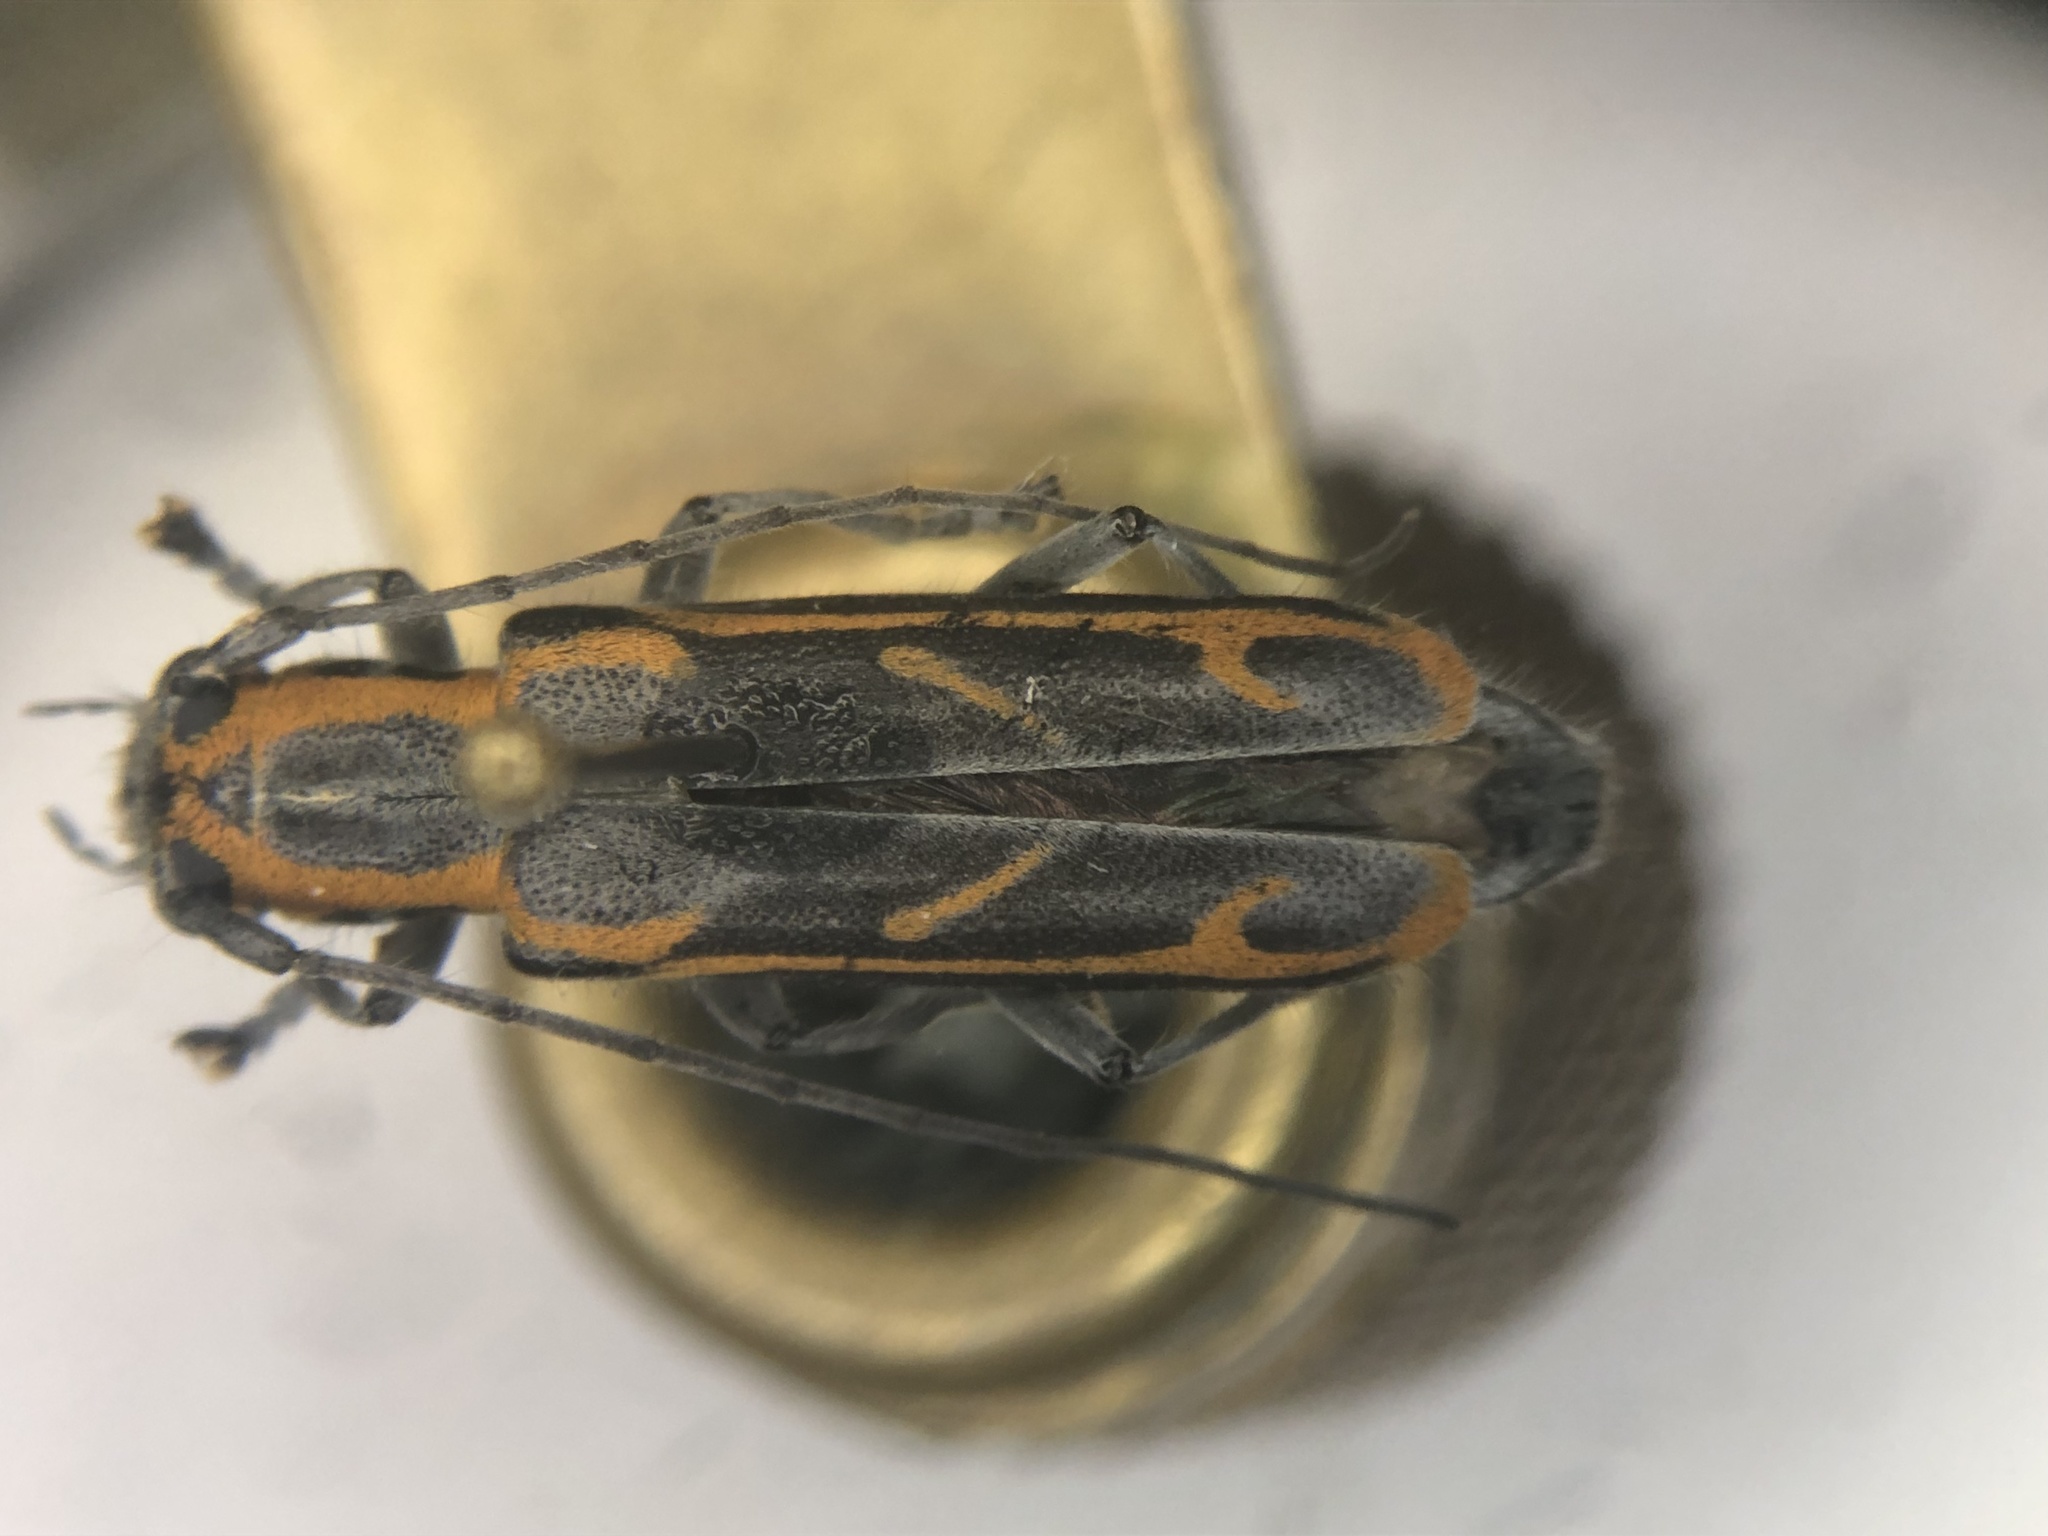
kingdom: Animalia
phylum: Arthropoda
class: Insecta
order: Coleoptera
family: Cerambycidae
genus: Saperda
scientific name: Saperda imitans
